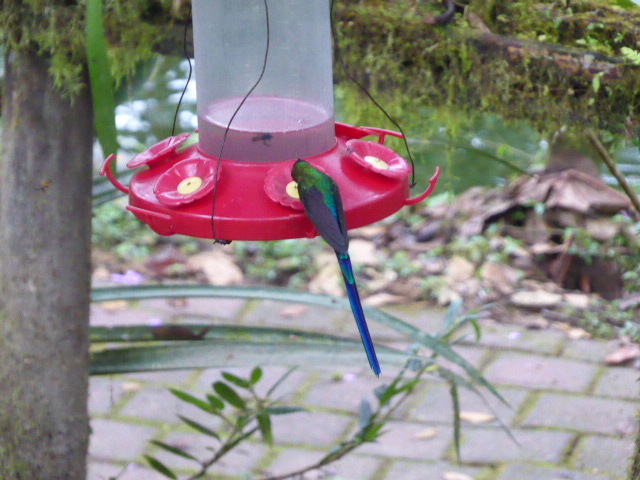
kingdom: Animalia
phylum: Chordata
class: Aves
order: Apodiformes
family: Trochilidae
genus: Aglaiocercus
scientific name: Aglaiocercus coelestis
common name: Violet-tailed sylph
